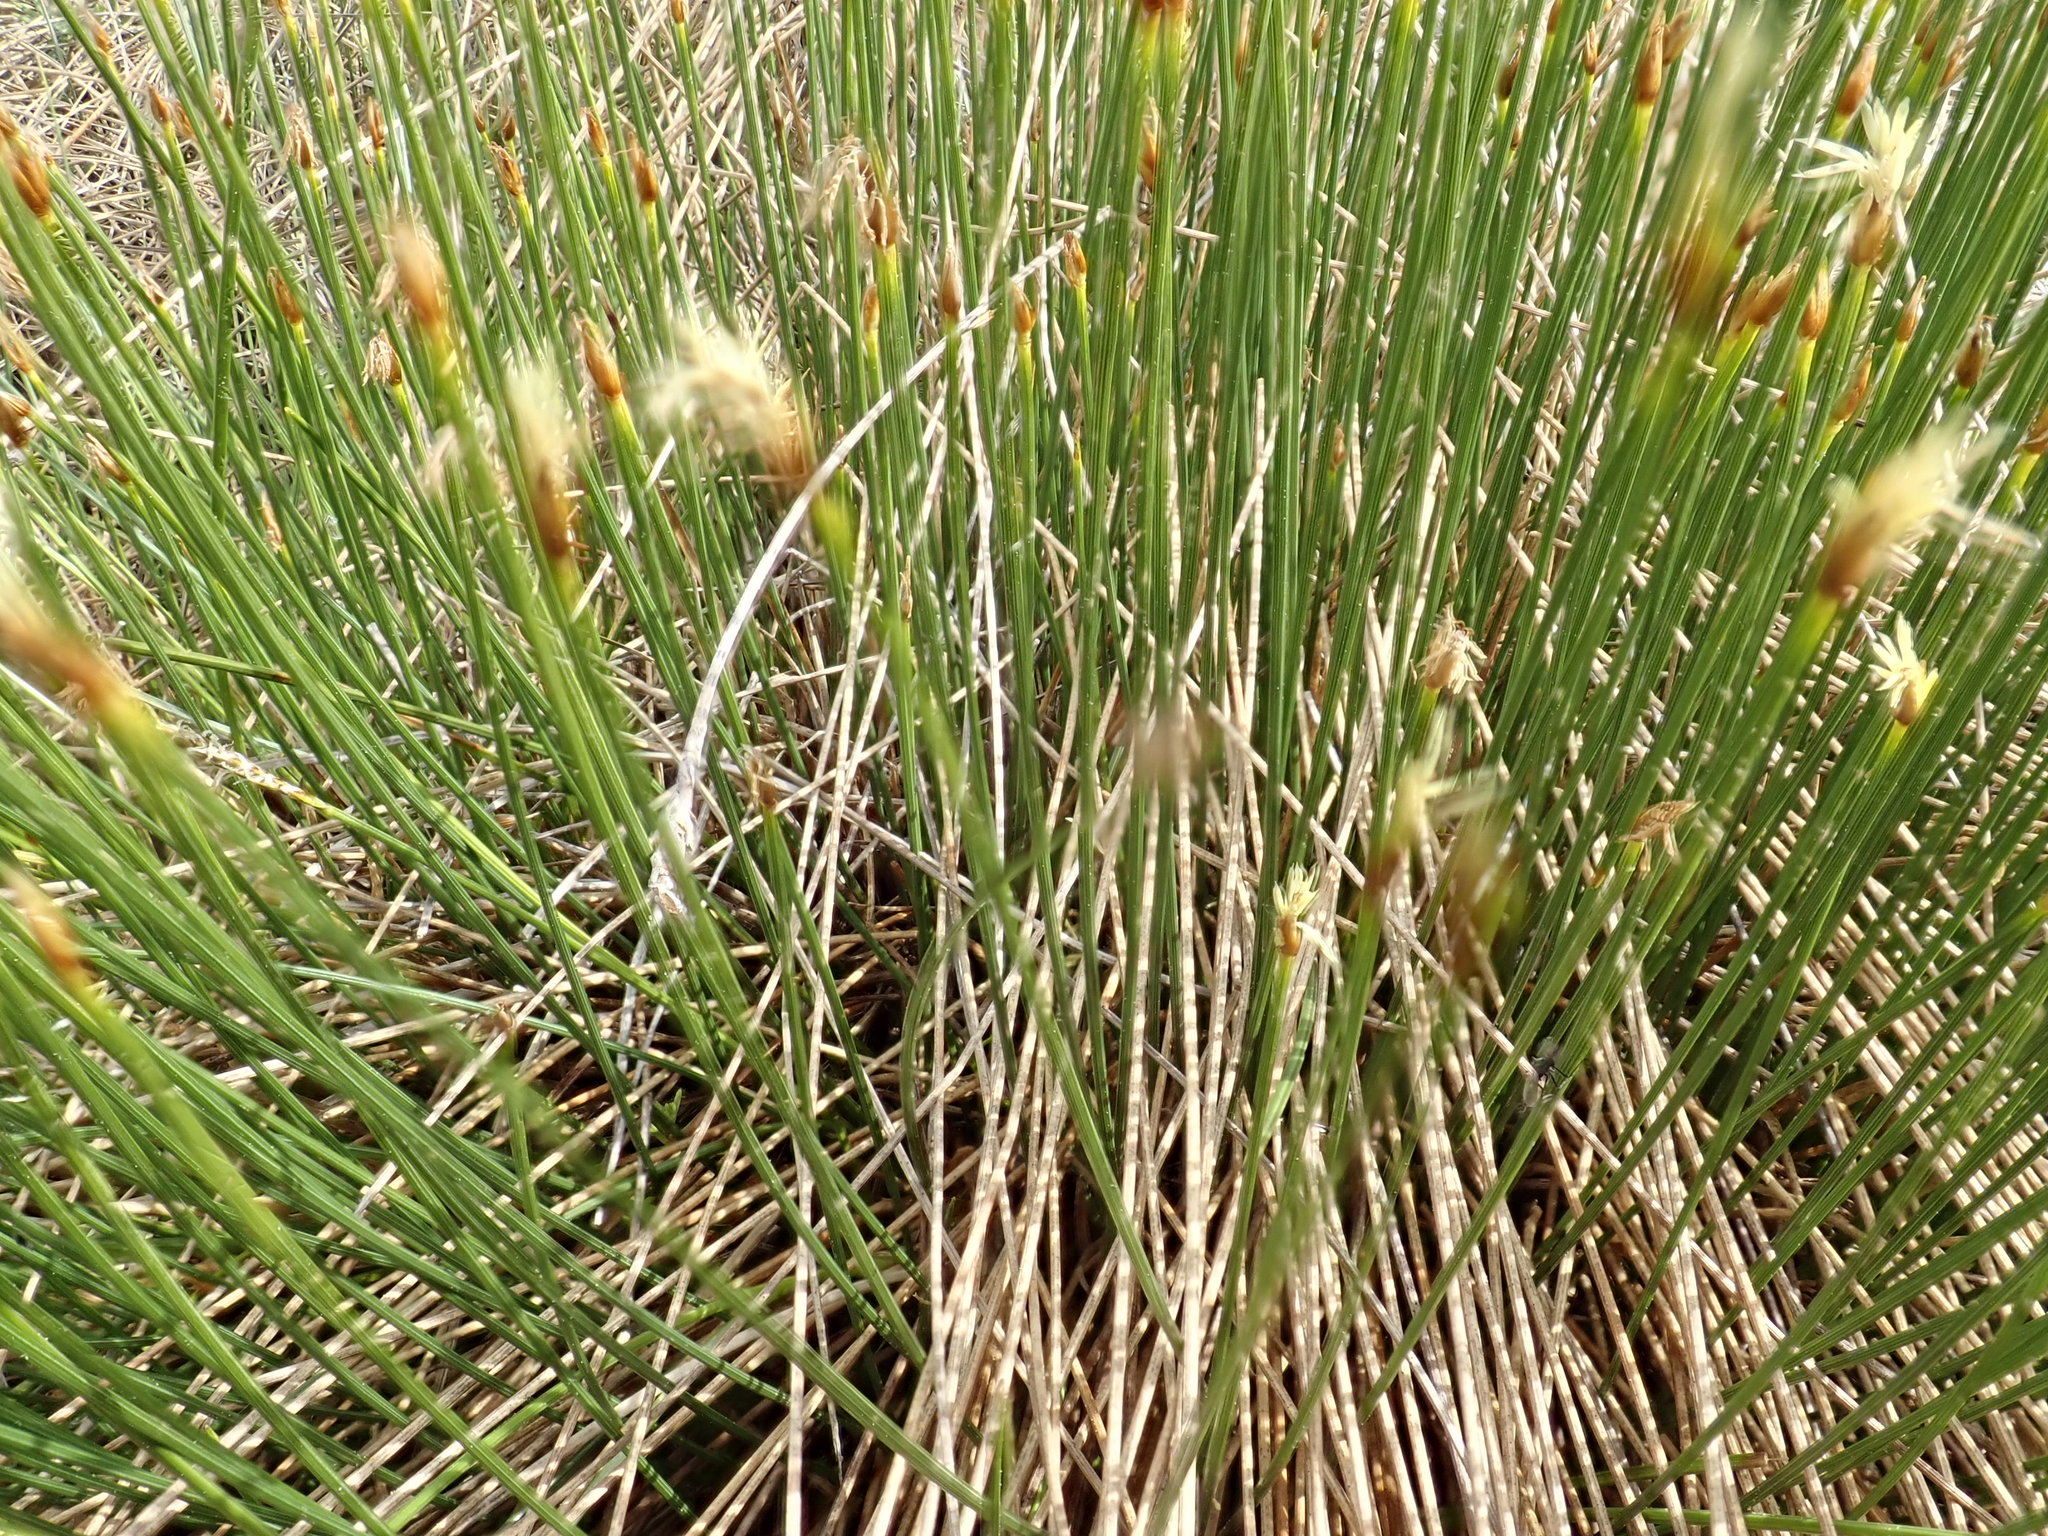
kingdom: Plantae
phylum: Tracheophyta
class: Liliopsida
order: Poales
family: Cyperaceae
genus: Trichophorum
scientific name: Trichophorum cespitosum
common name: Cespitose bulrush
